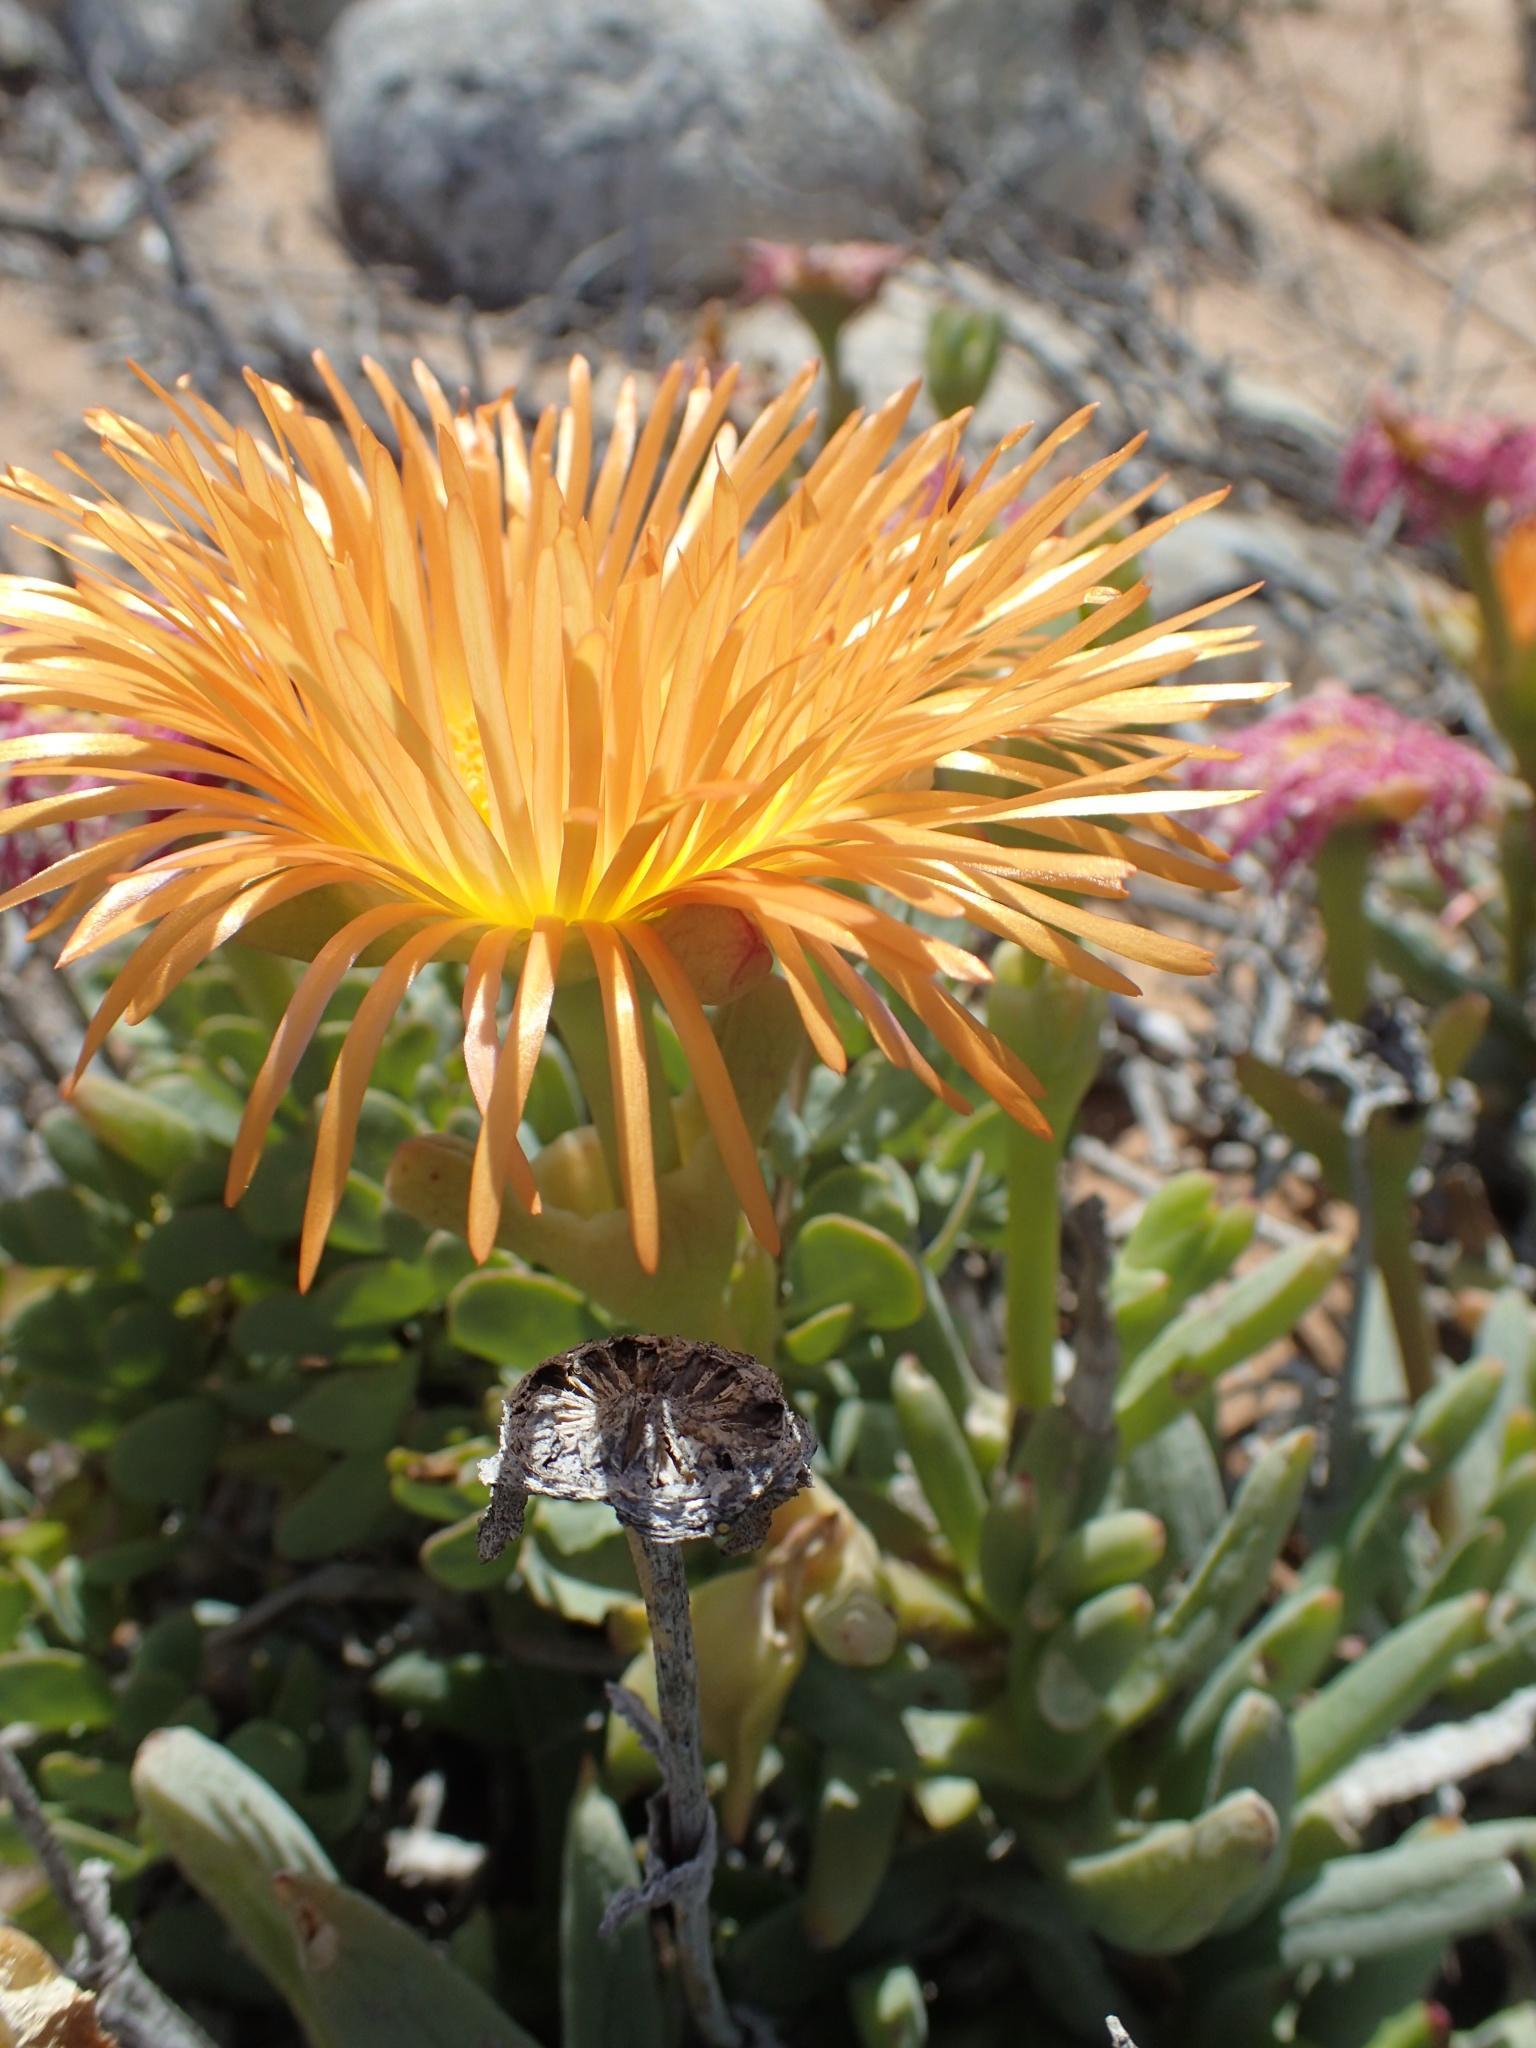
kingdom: Plantae
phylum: Tracheophyta
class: Magnoliopsida
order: Caryophyllales
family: Aizoaceae
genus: Jordaaniella
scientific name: Jordaaniella spongiosa
